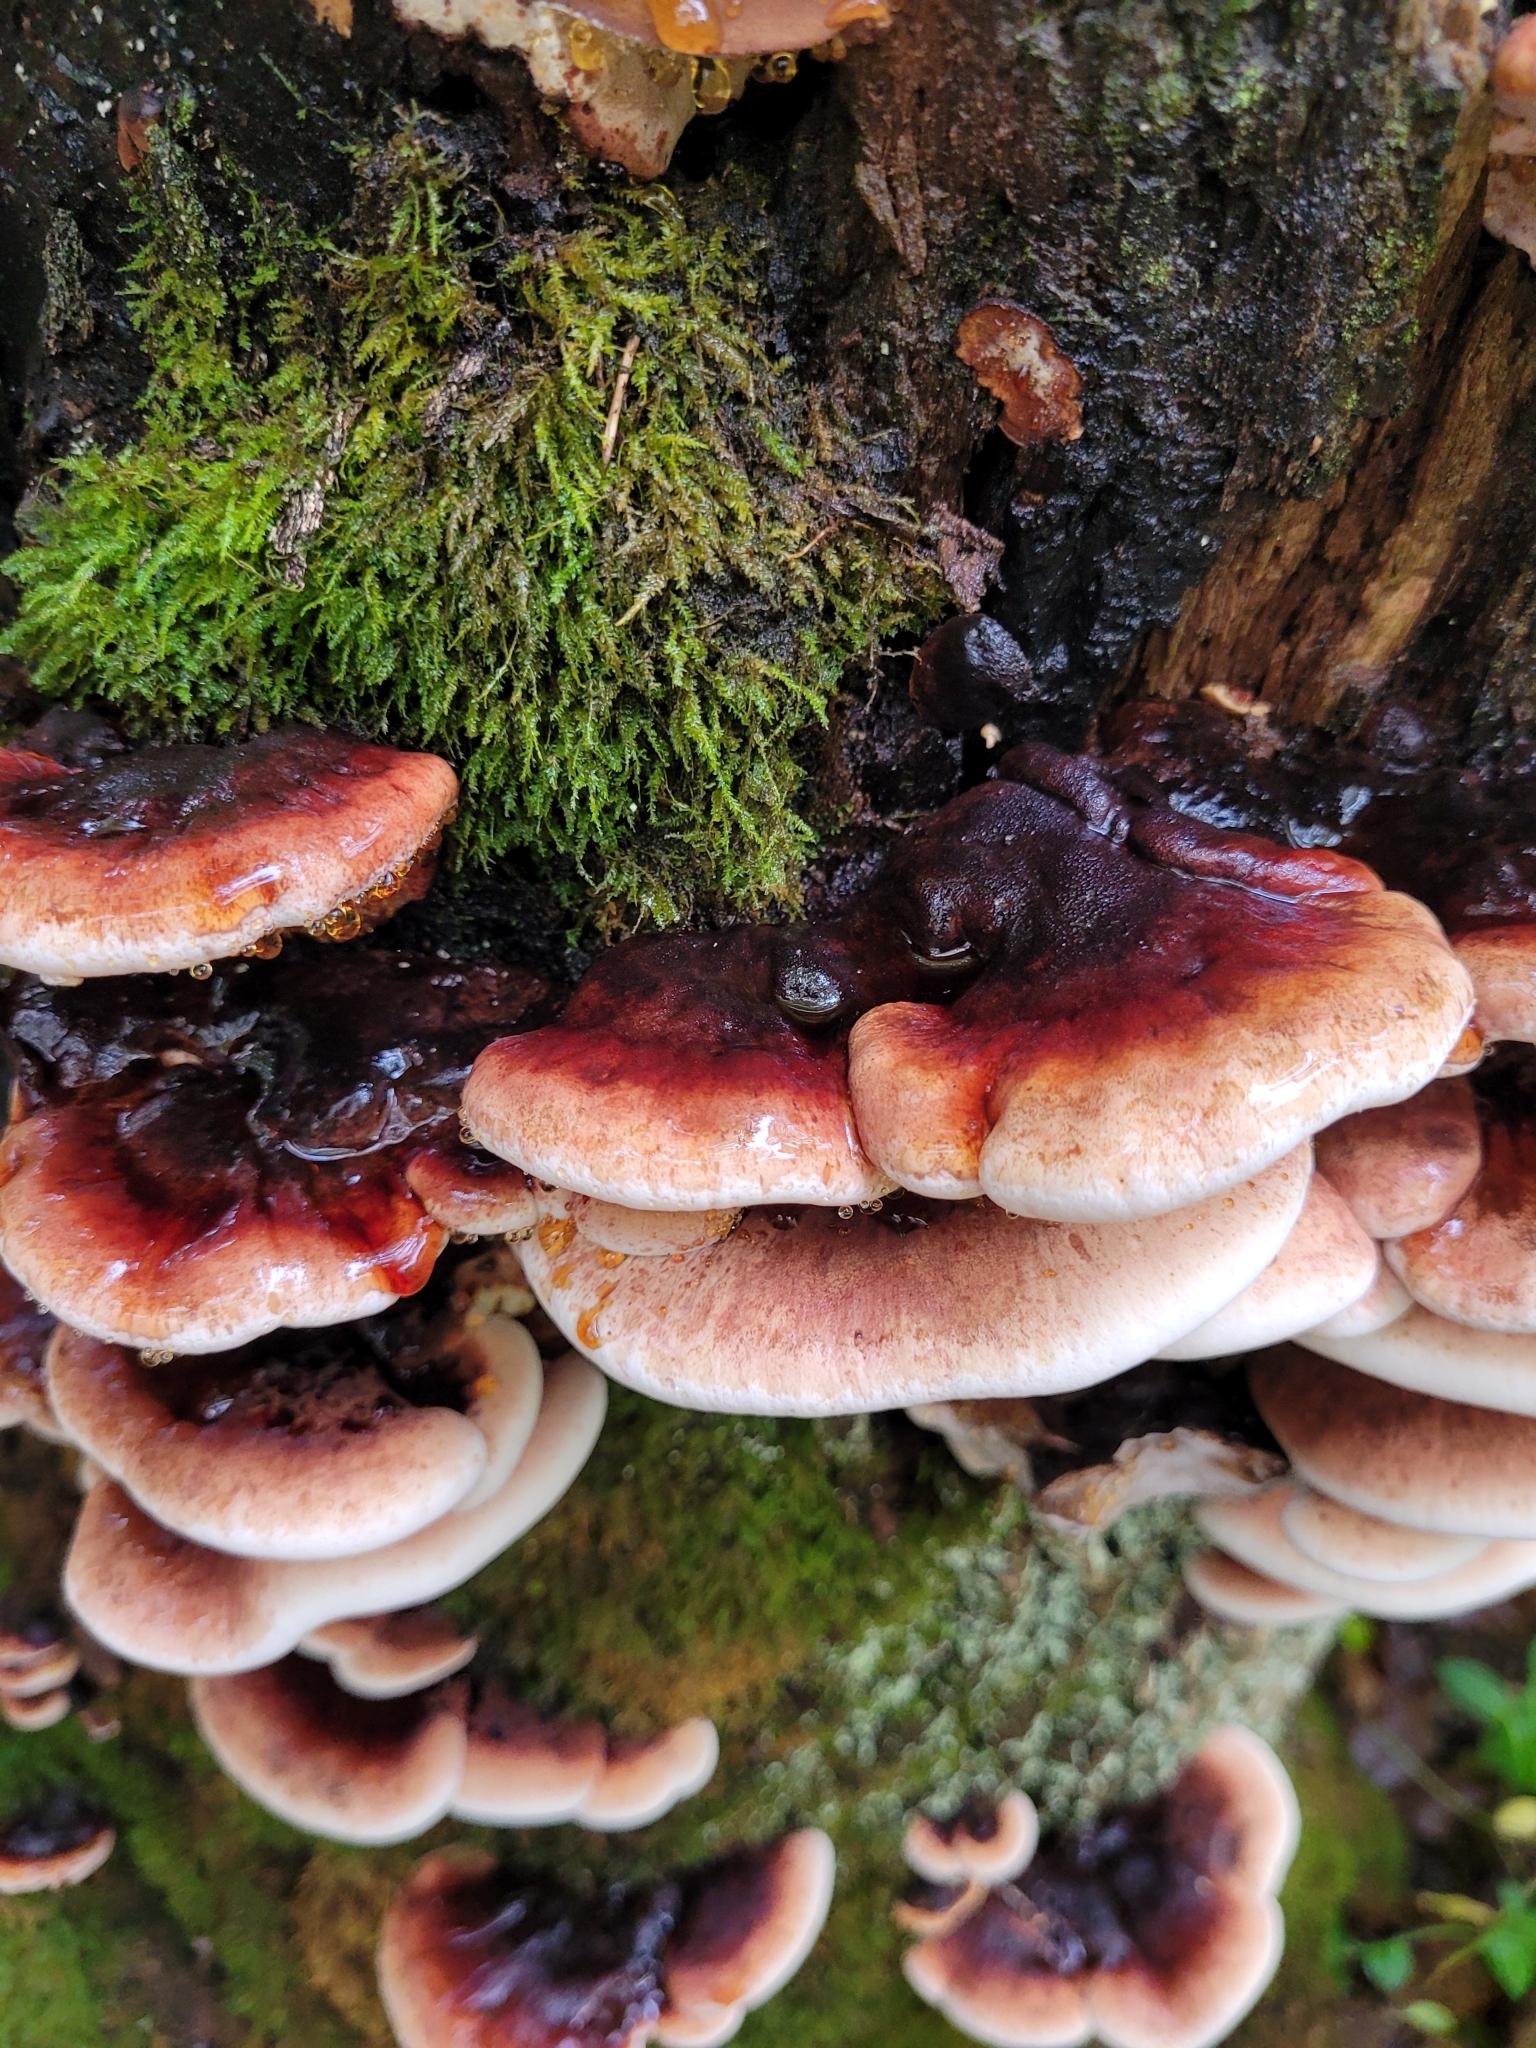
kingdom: Fungi
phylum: Basidiomycota
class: Agaricomycetes
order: Polyporales
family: Ischnodermataceae
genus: Ischnoderma
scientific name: Ischnoderma resinosum
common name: Resinous polypore
